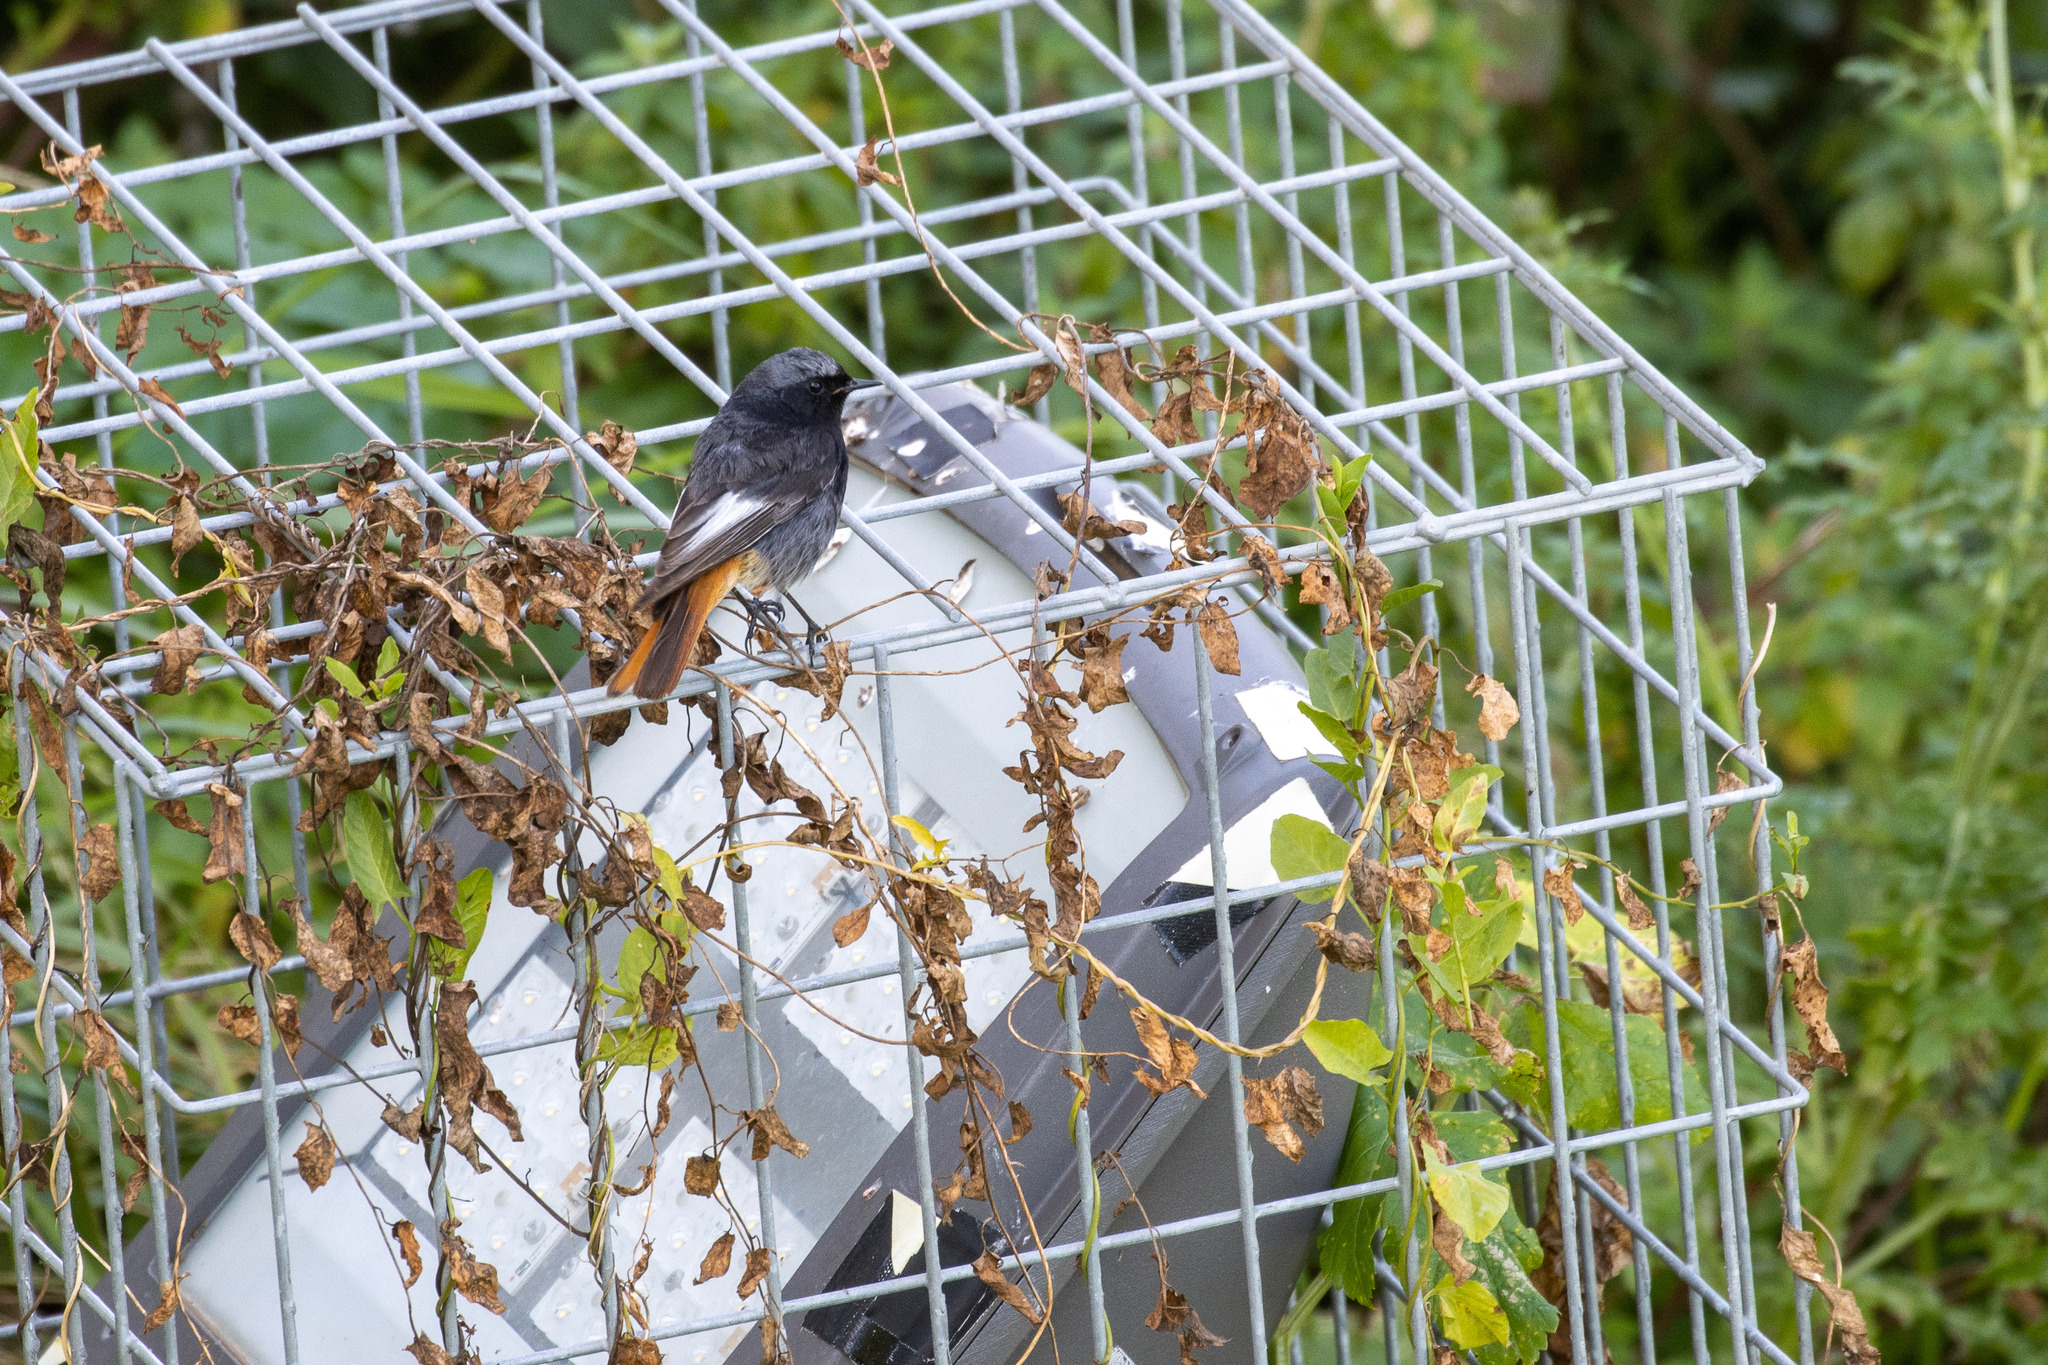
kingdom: Animalia
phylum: Chordata
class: Aves
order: Passeriformes
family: Muscicapidae
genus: Phoenicurus
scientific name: Phoenicurus ochruros
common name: Black redstart
